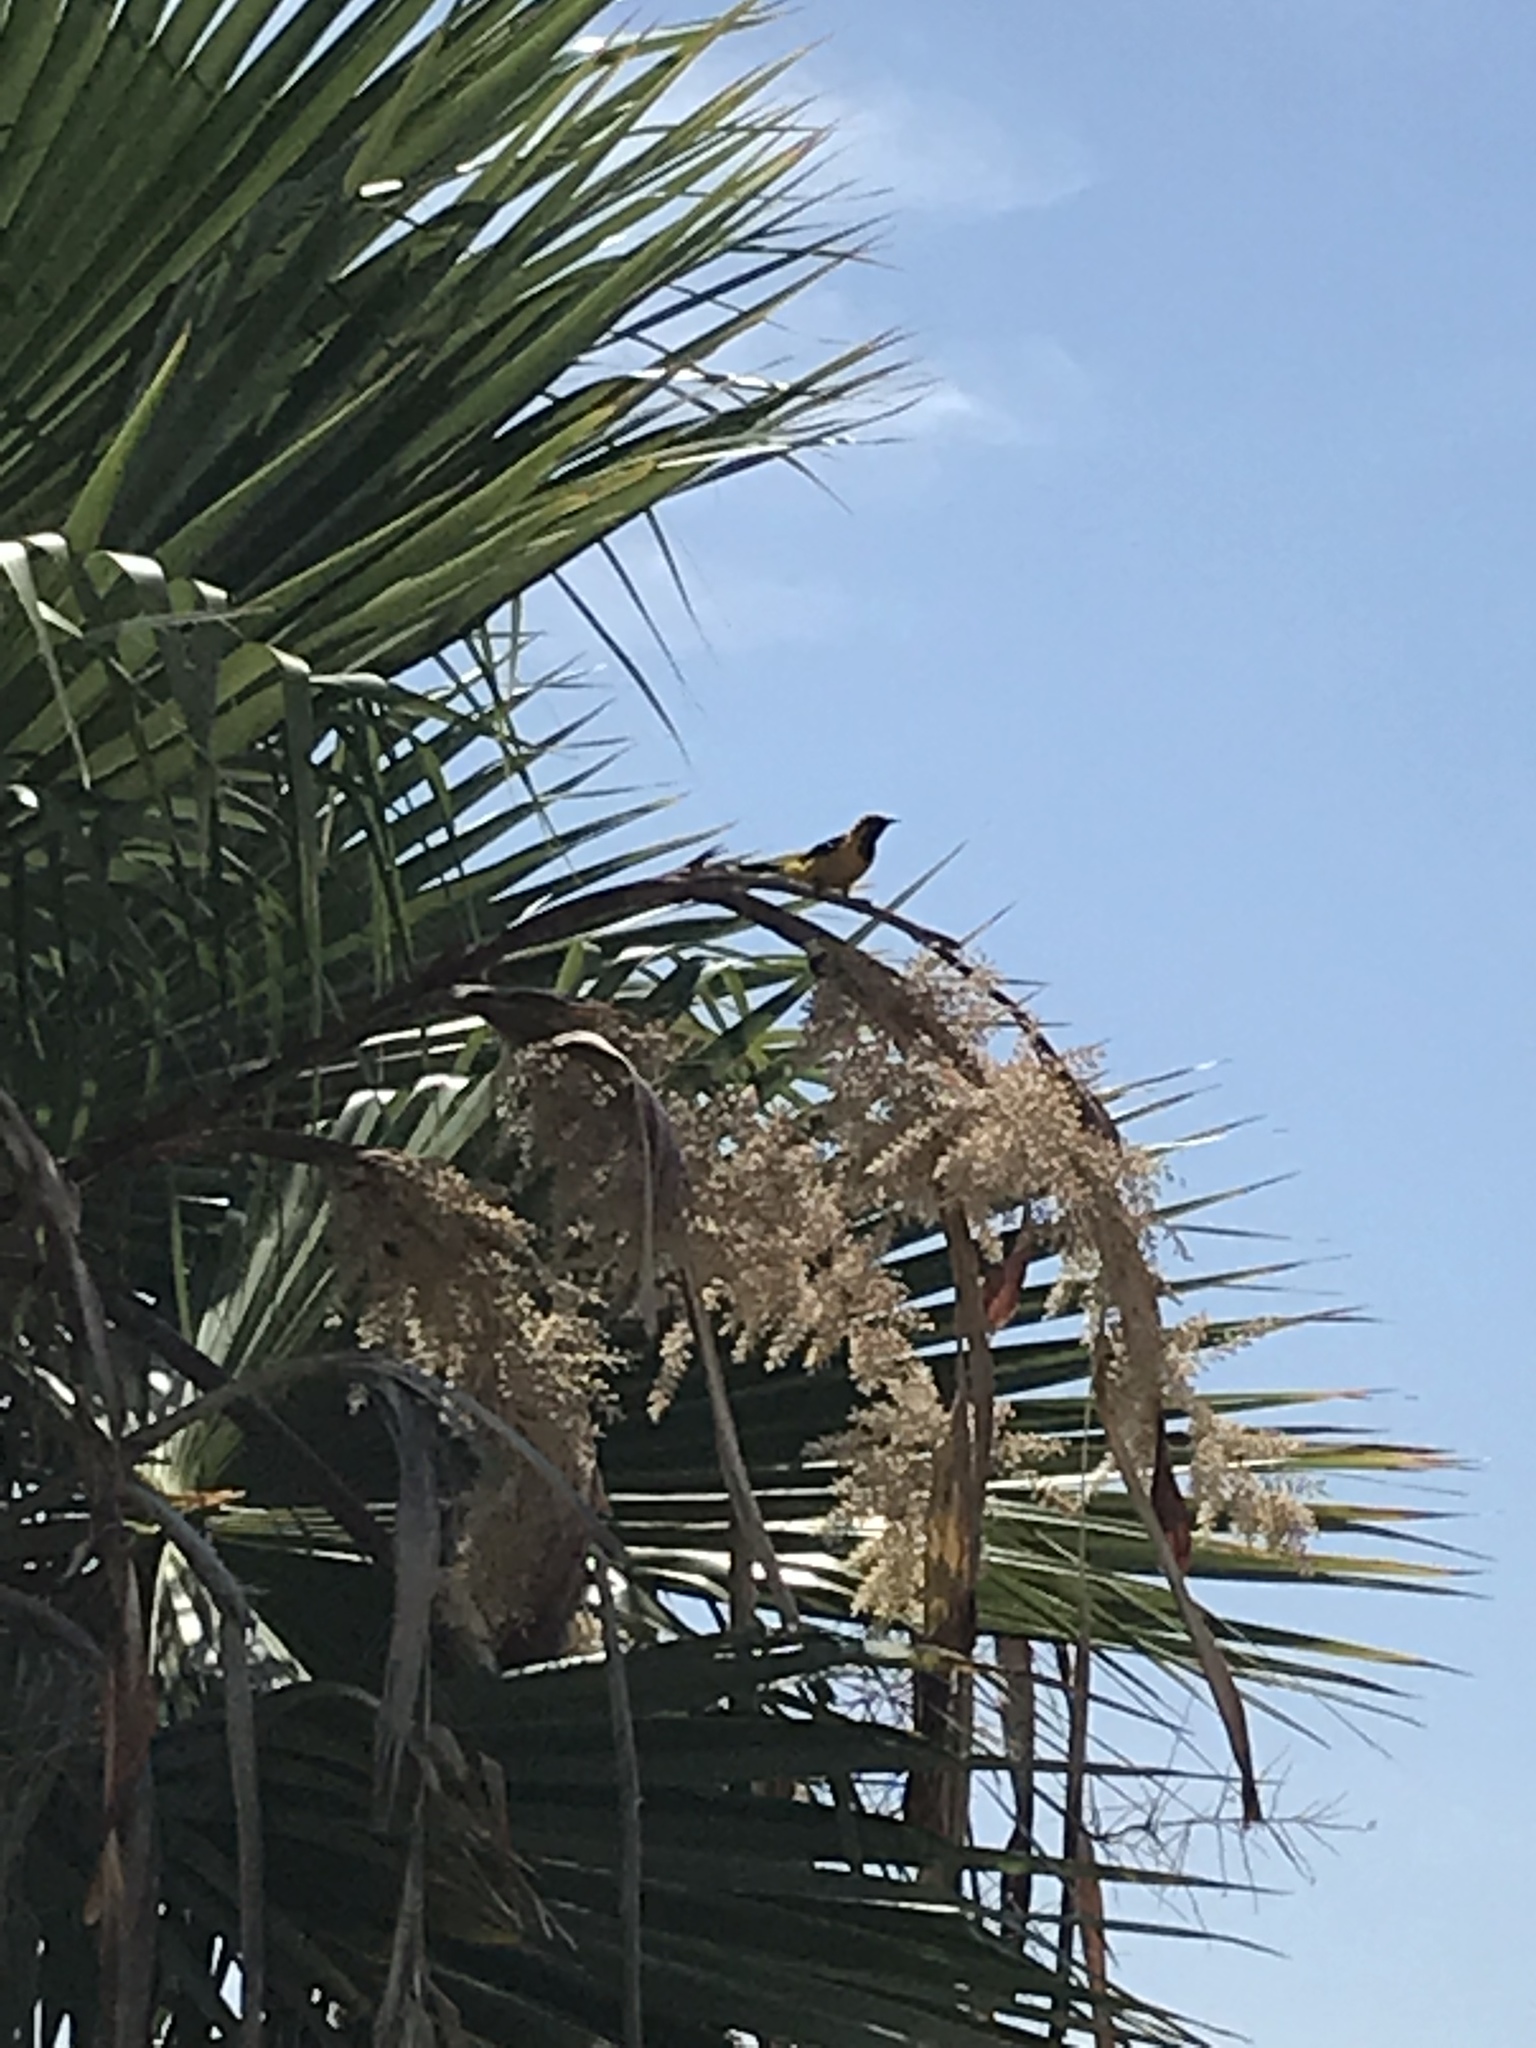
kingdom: Animalia
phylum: Chordata
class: Aves
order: Passeriformes
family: Icteridae
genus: Icterus
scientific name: Icterus cucullatus
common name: Hooded oriole
